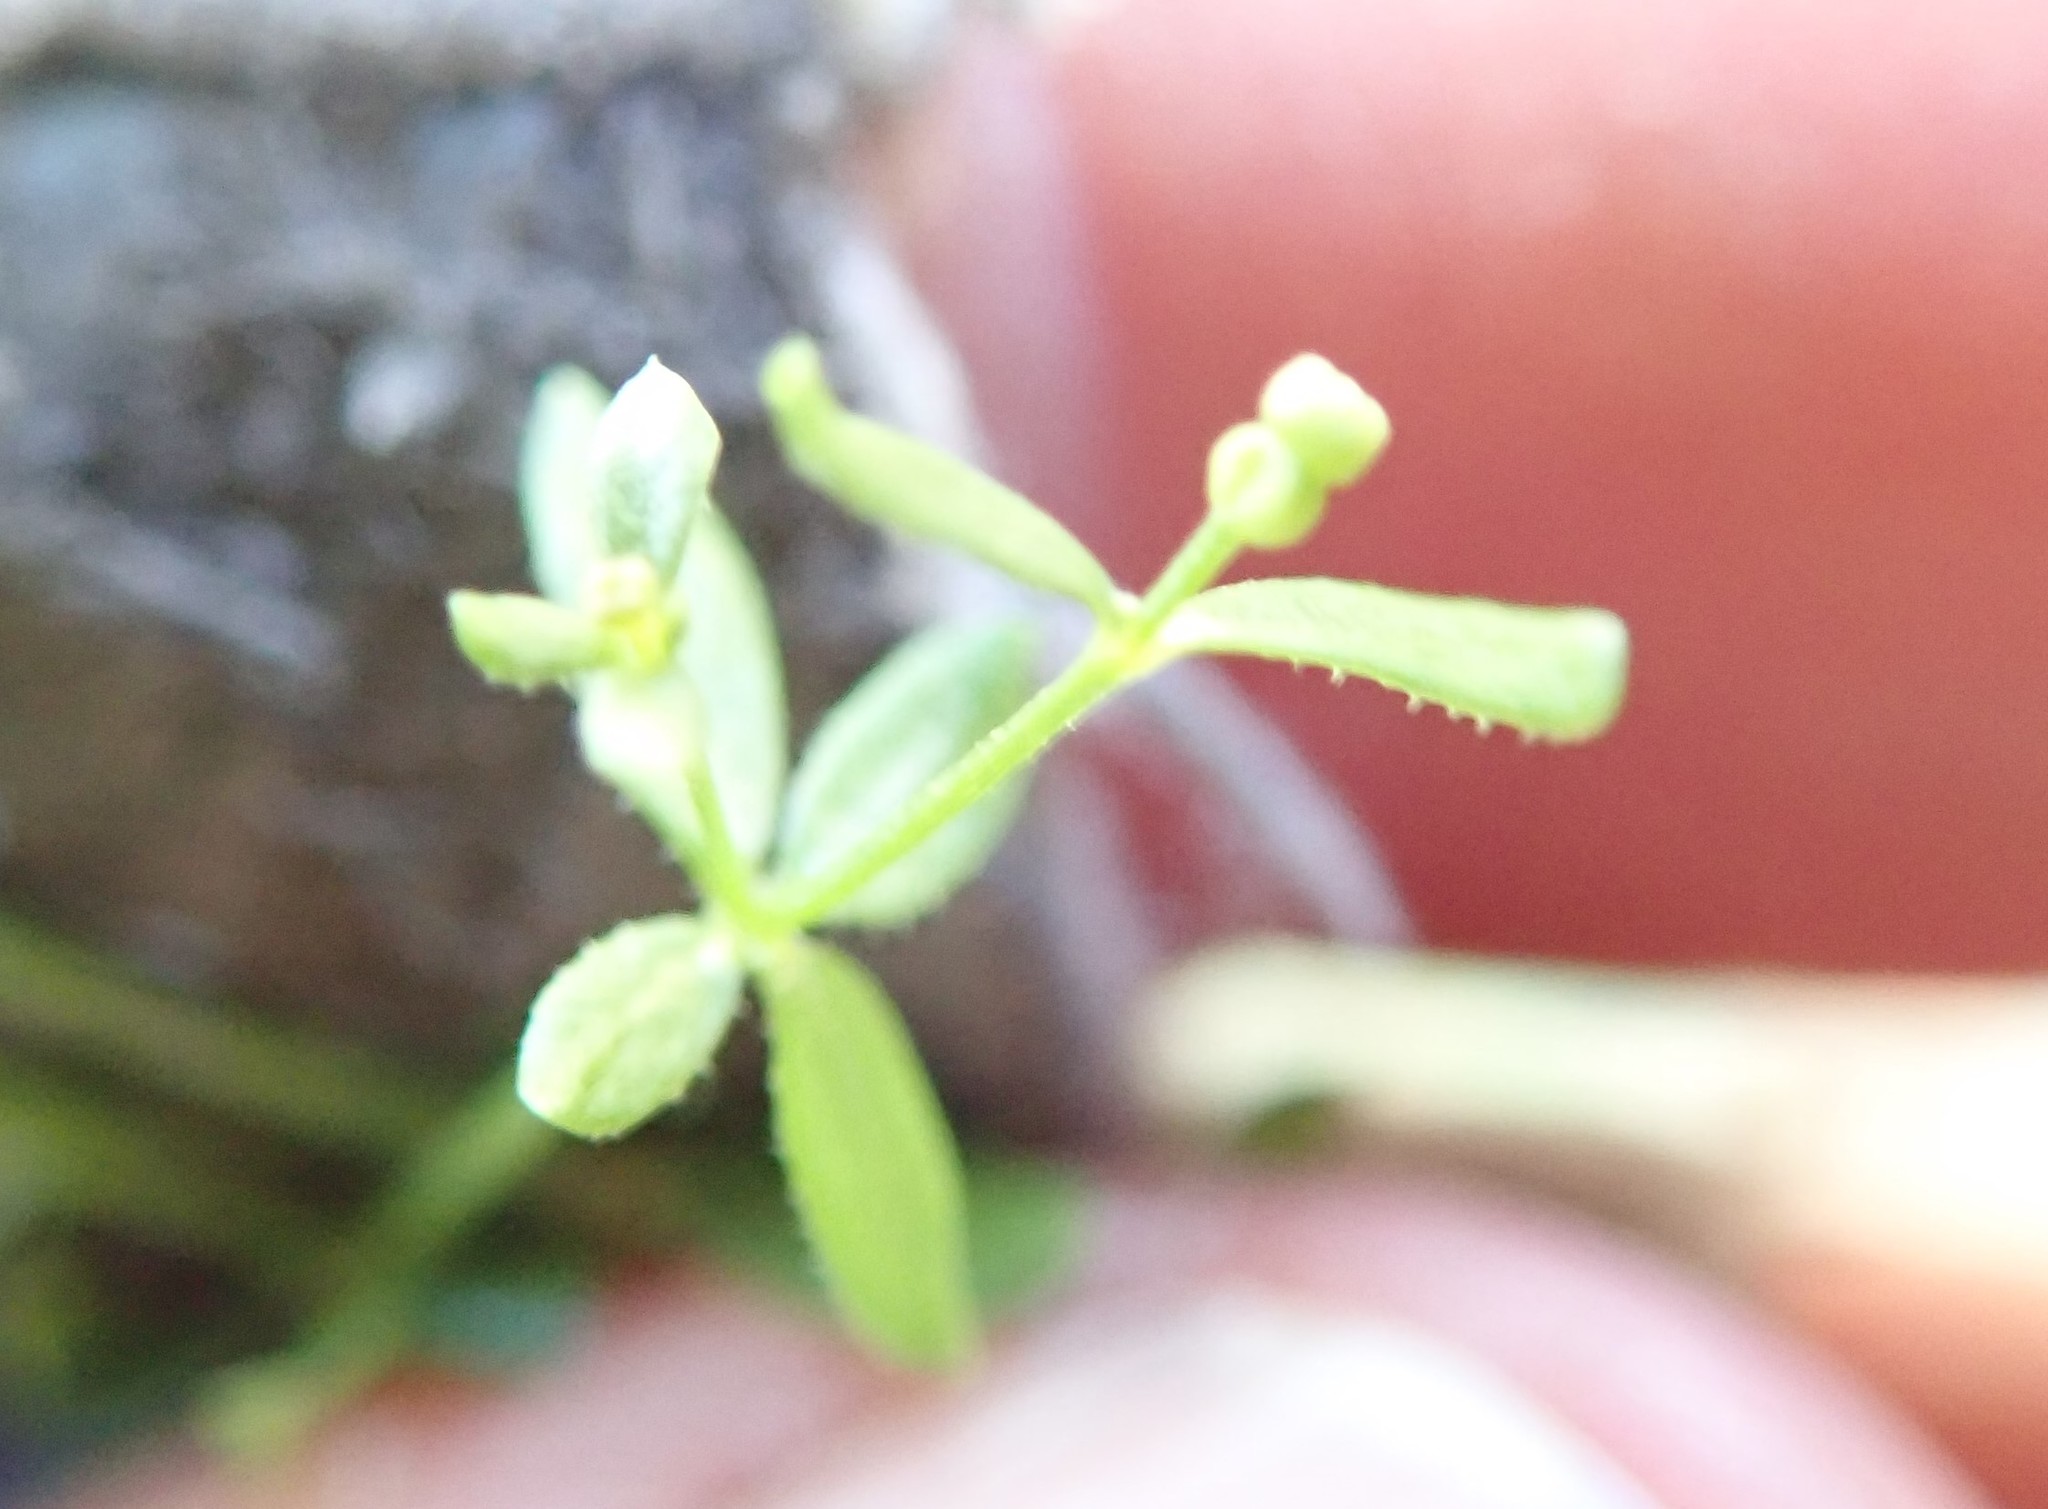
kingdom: Plantae
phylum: Tracheophyta
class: Magnoliopsida
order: Gentianales
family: Rubiaceae
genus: Galium
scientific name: Galium porrigens
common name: Climbing bedstraw
